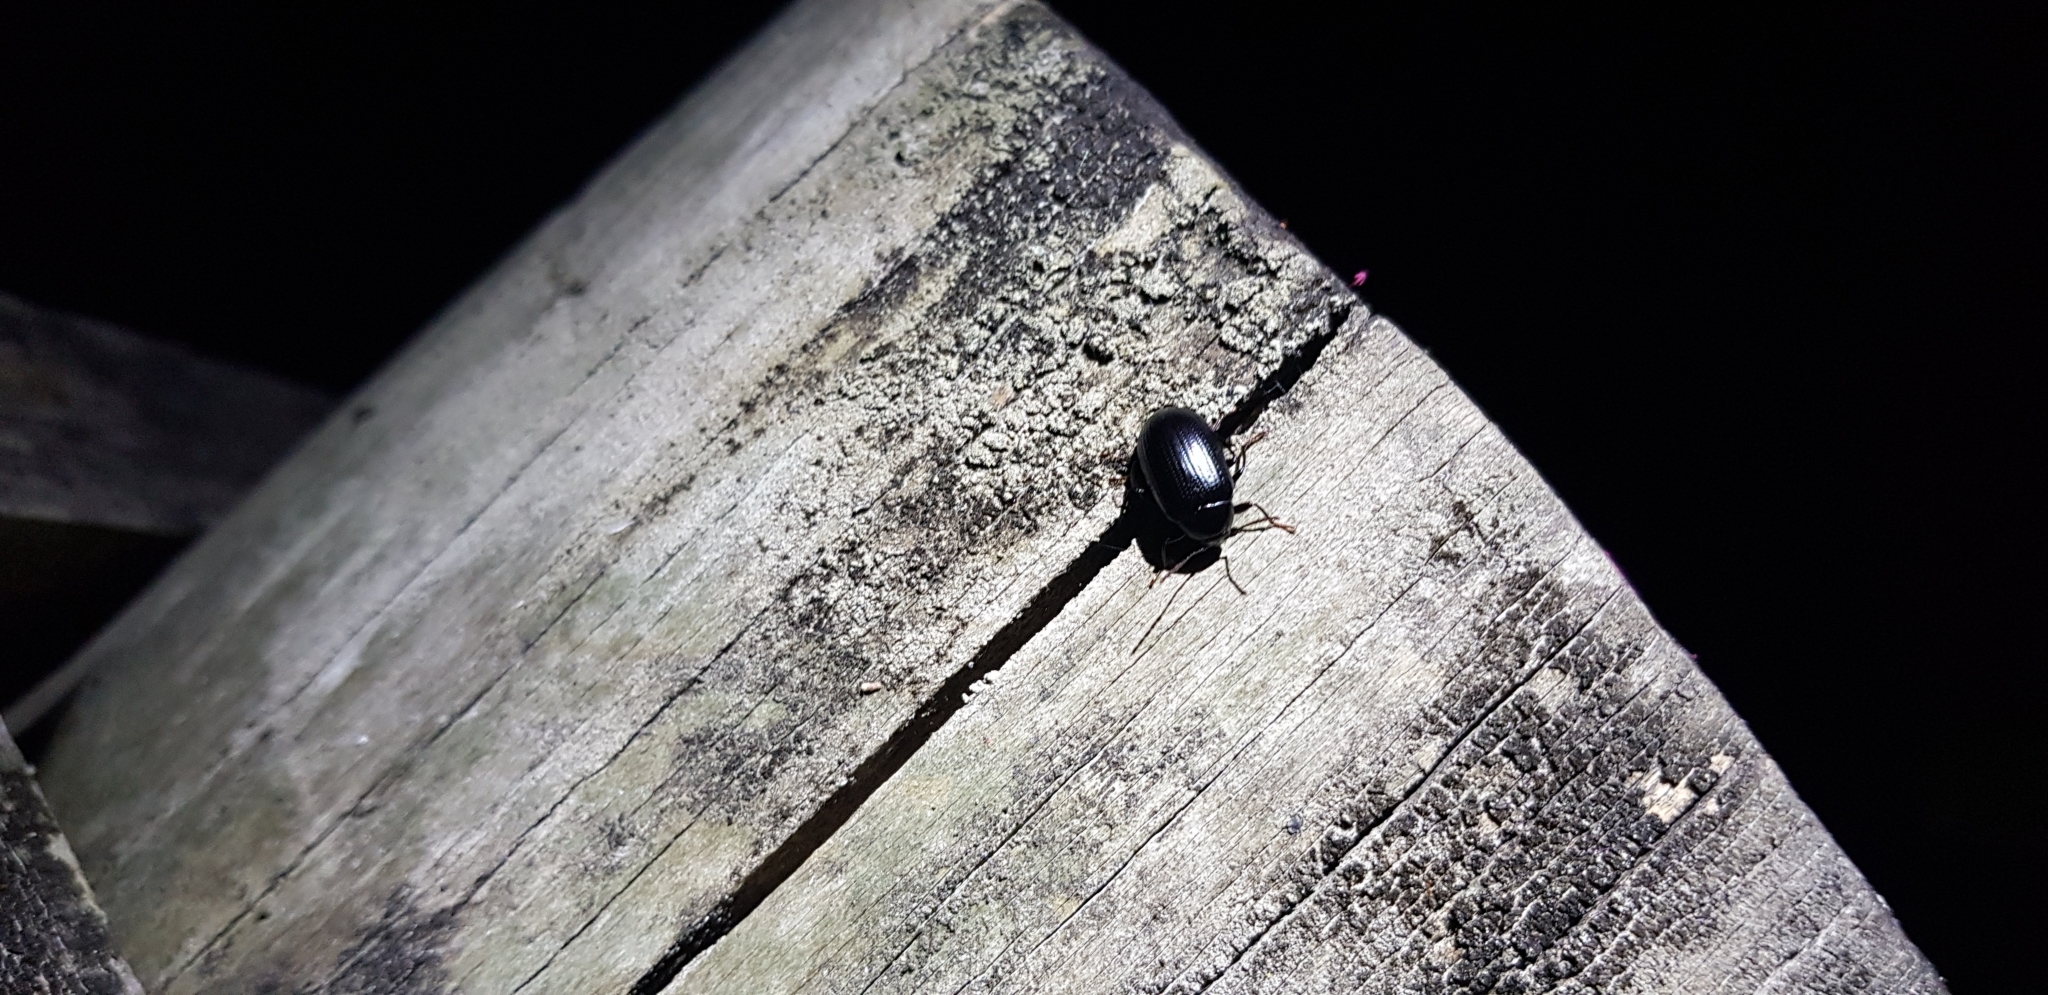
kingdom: Animalia
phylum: Arthropoda
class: Insecta
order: Coleoptera
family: Tenebrionidae
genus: Amarygmus
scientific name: Amarygmus
